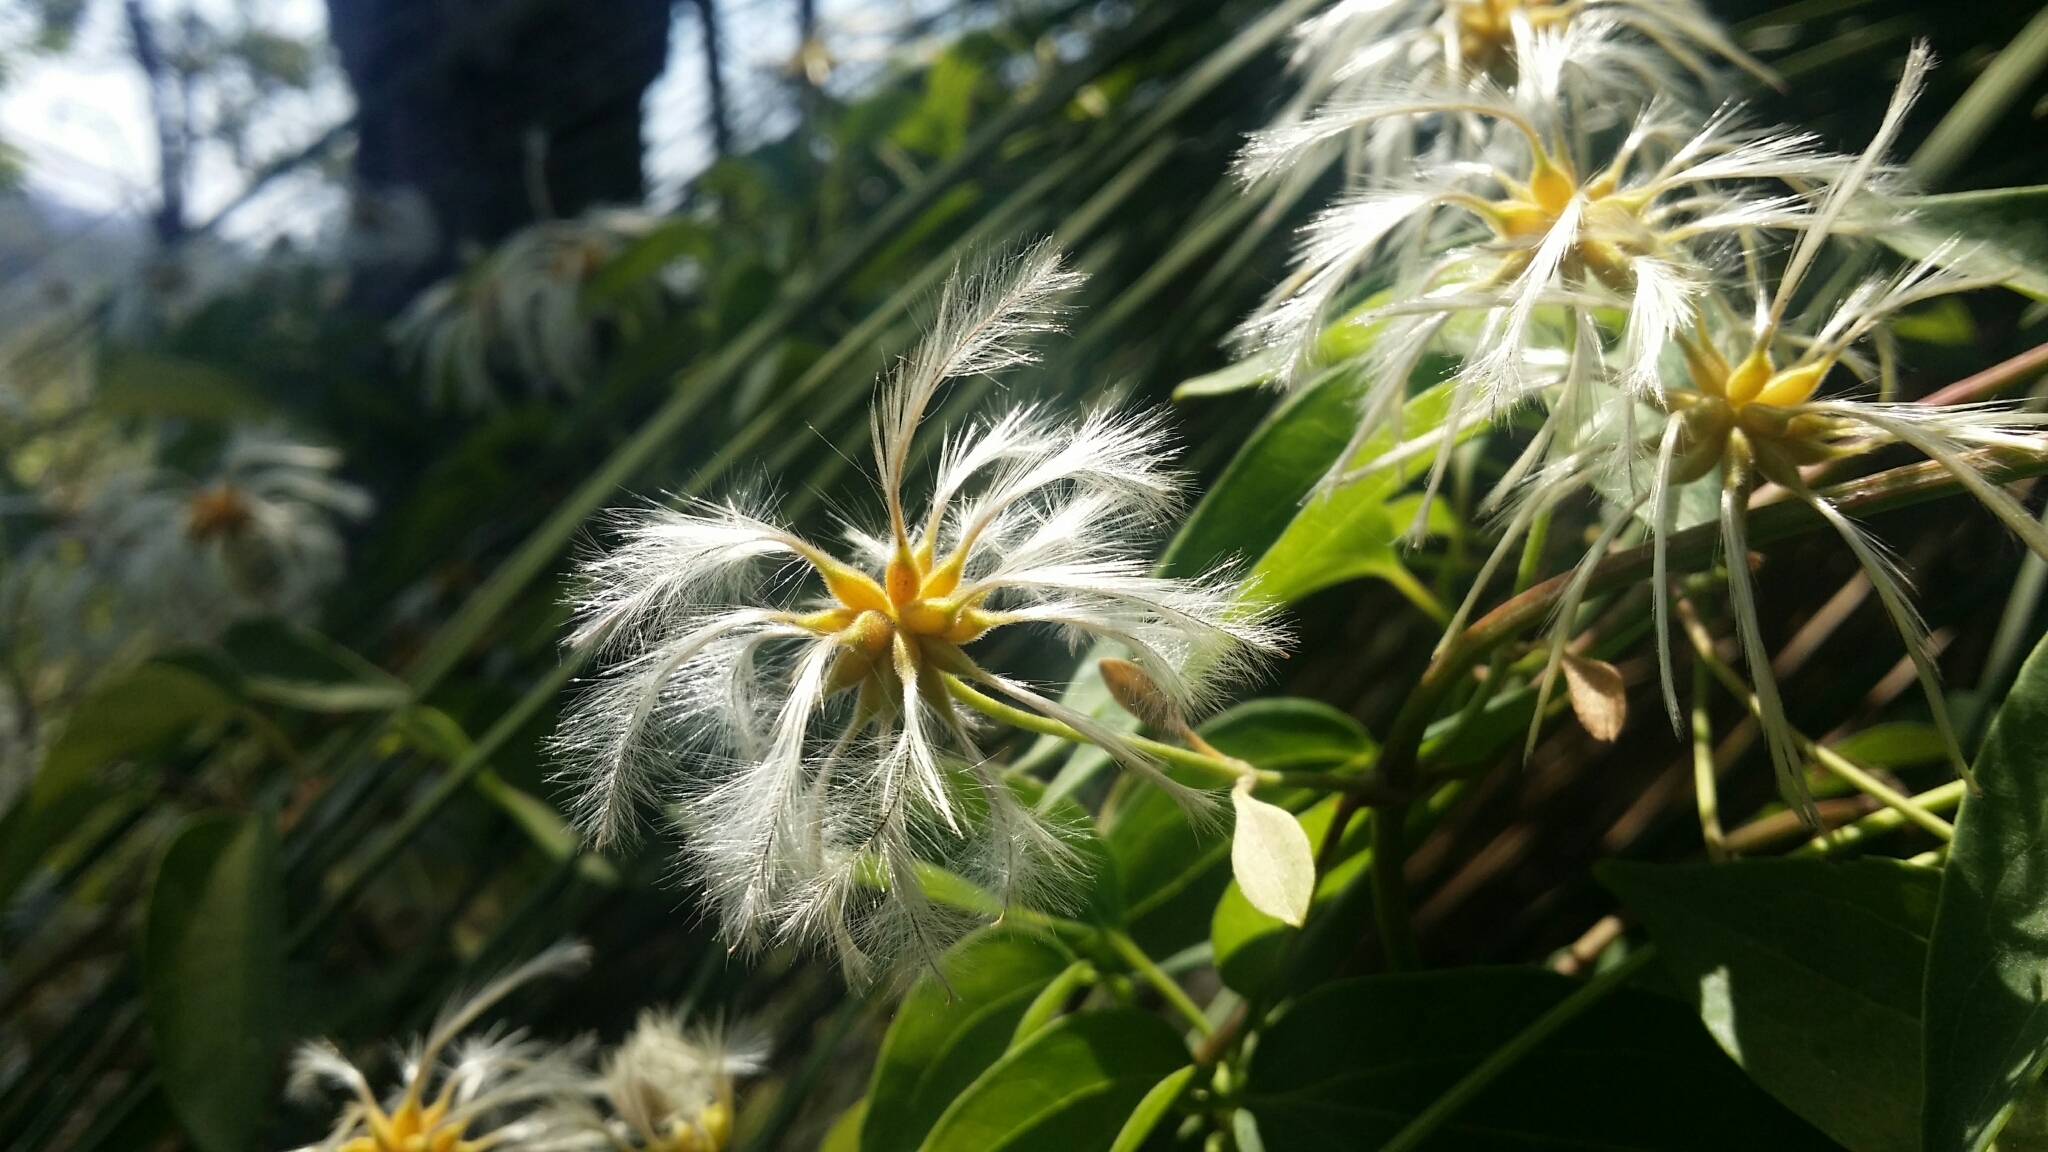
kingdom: Plantae
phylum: Tracheophyta
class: Magnoliopsida
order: Ranunculales
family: Ranunculaceae
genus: Clematis
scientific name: Clematis pubescens
